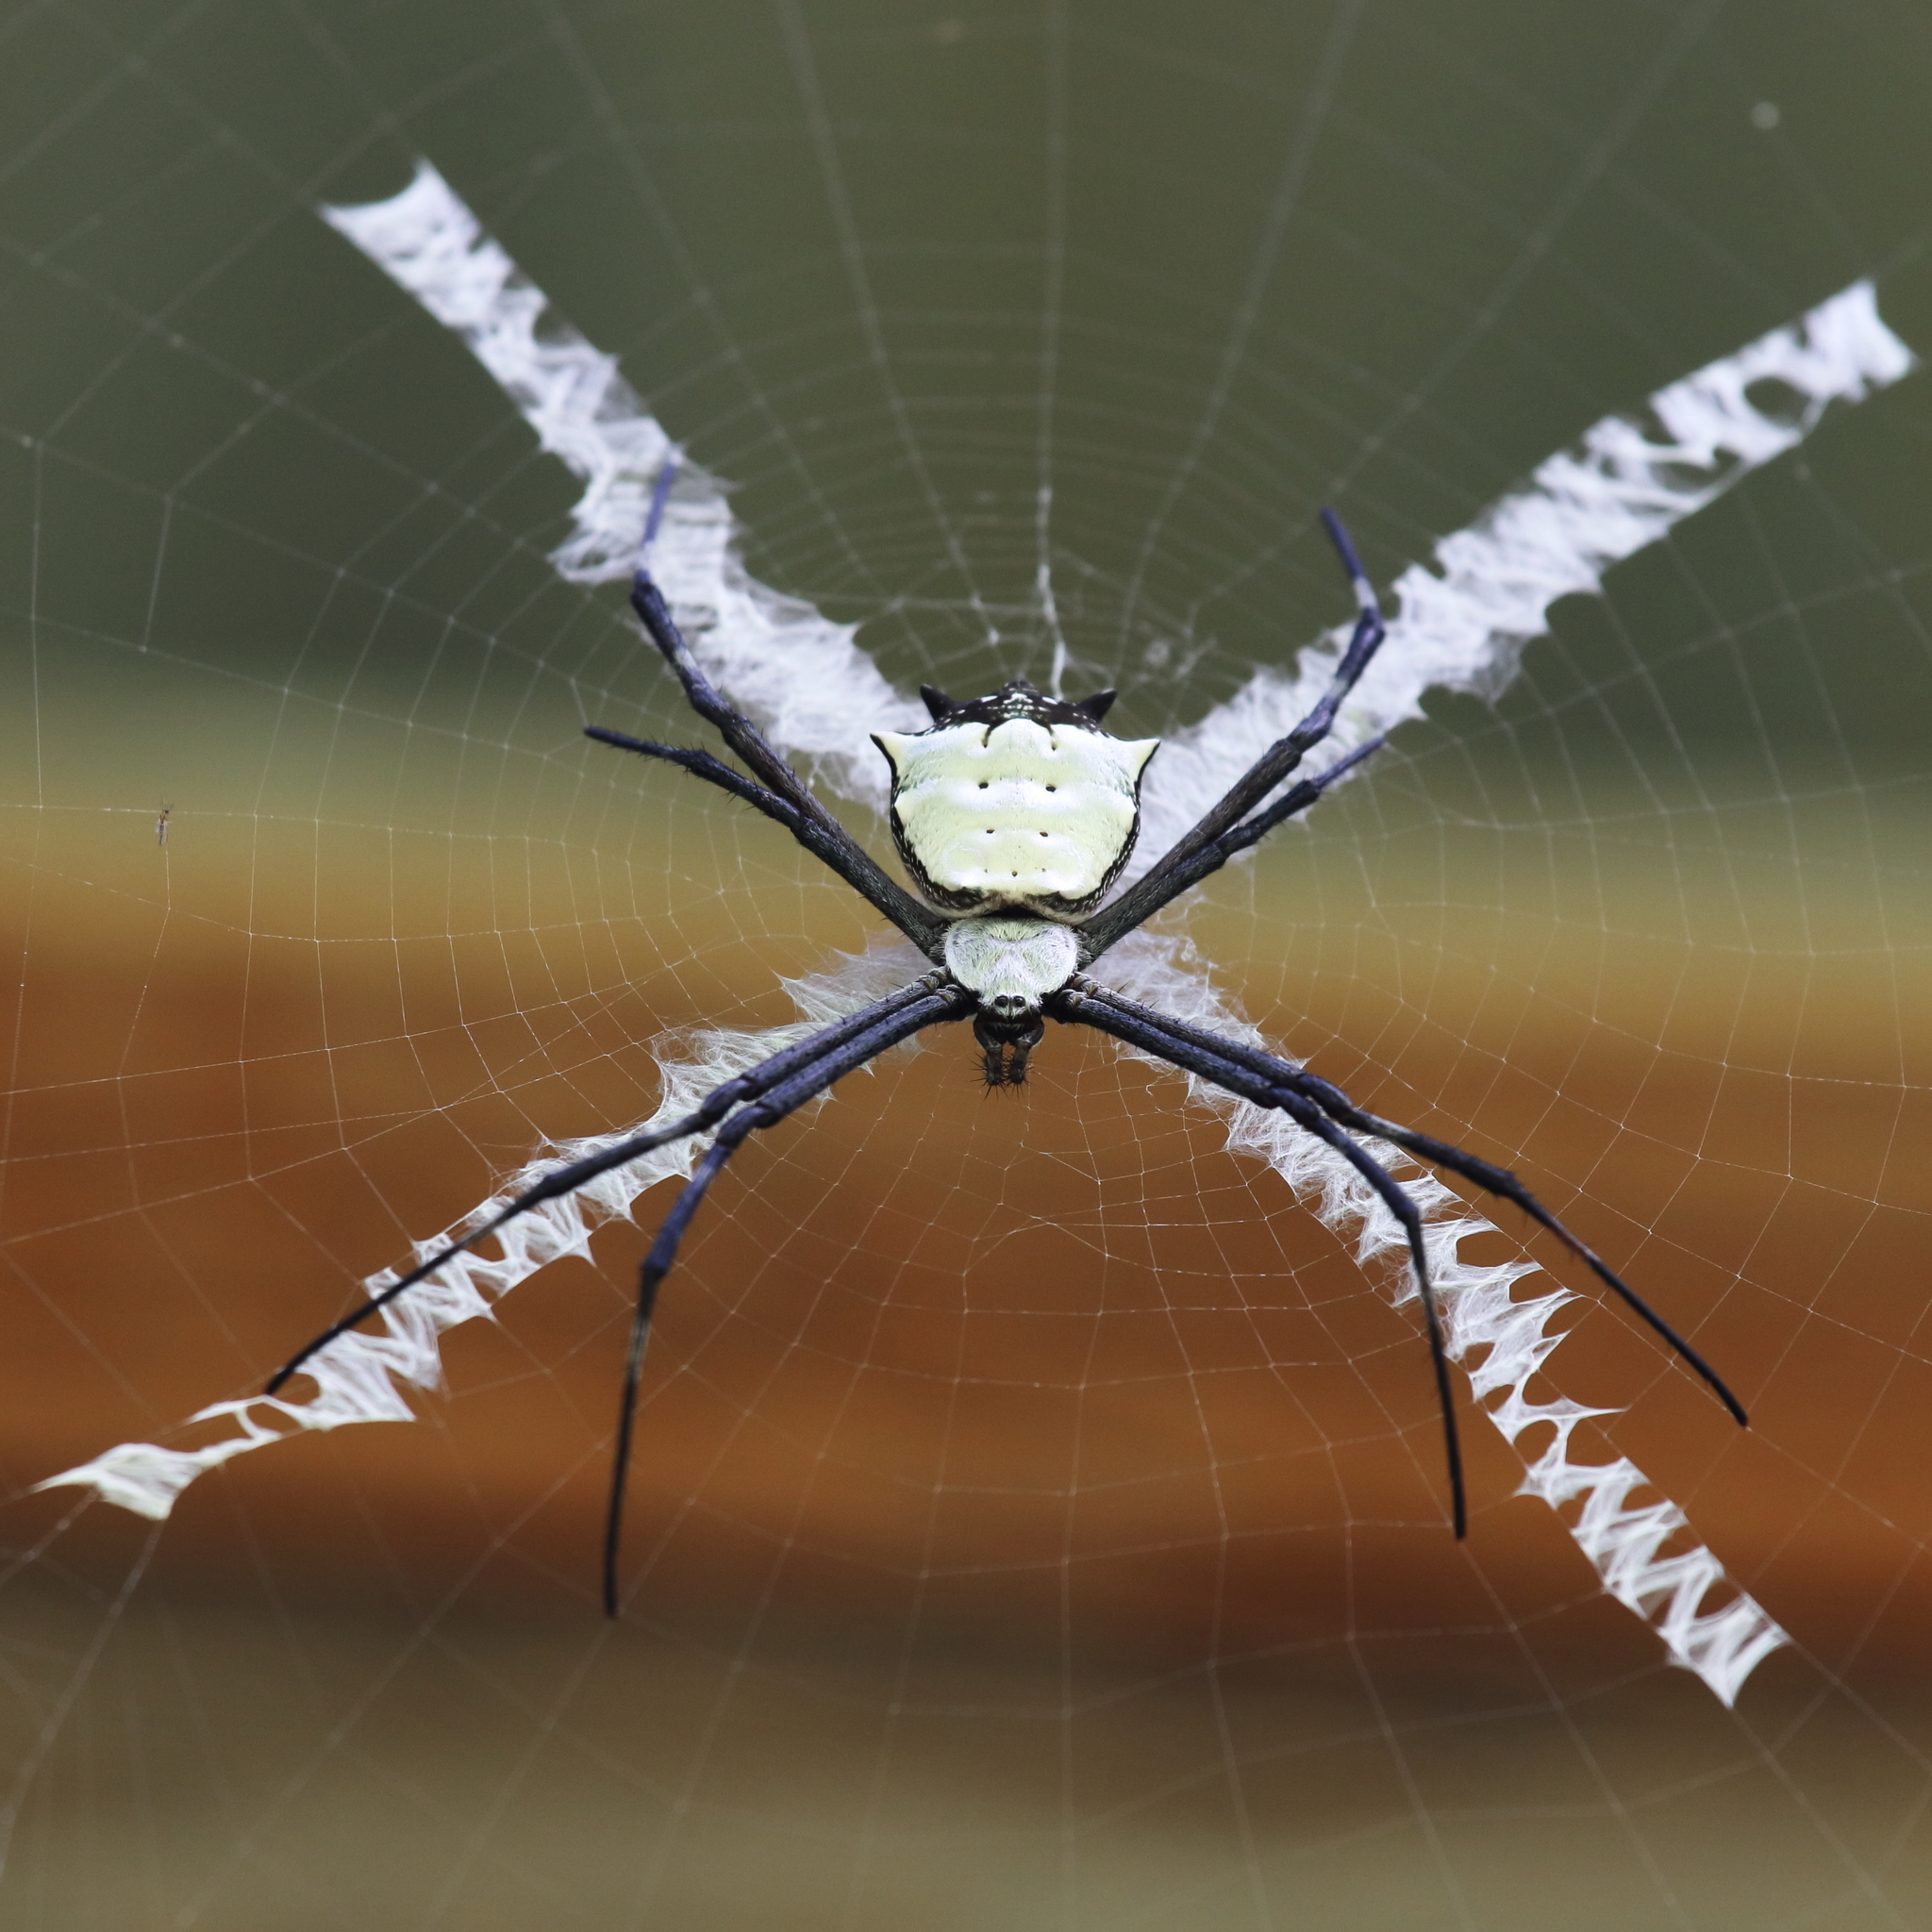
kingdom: Animalia
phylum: Arthropoda
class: Arachnida
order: Araneae
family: Araneidae
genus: Argiope
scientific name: Argiope submaronica
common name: Orb weavers
